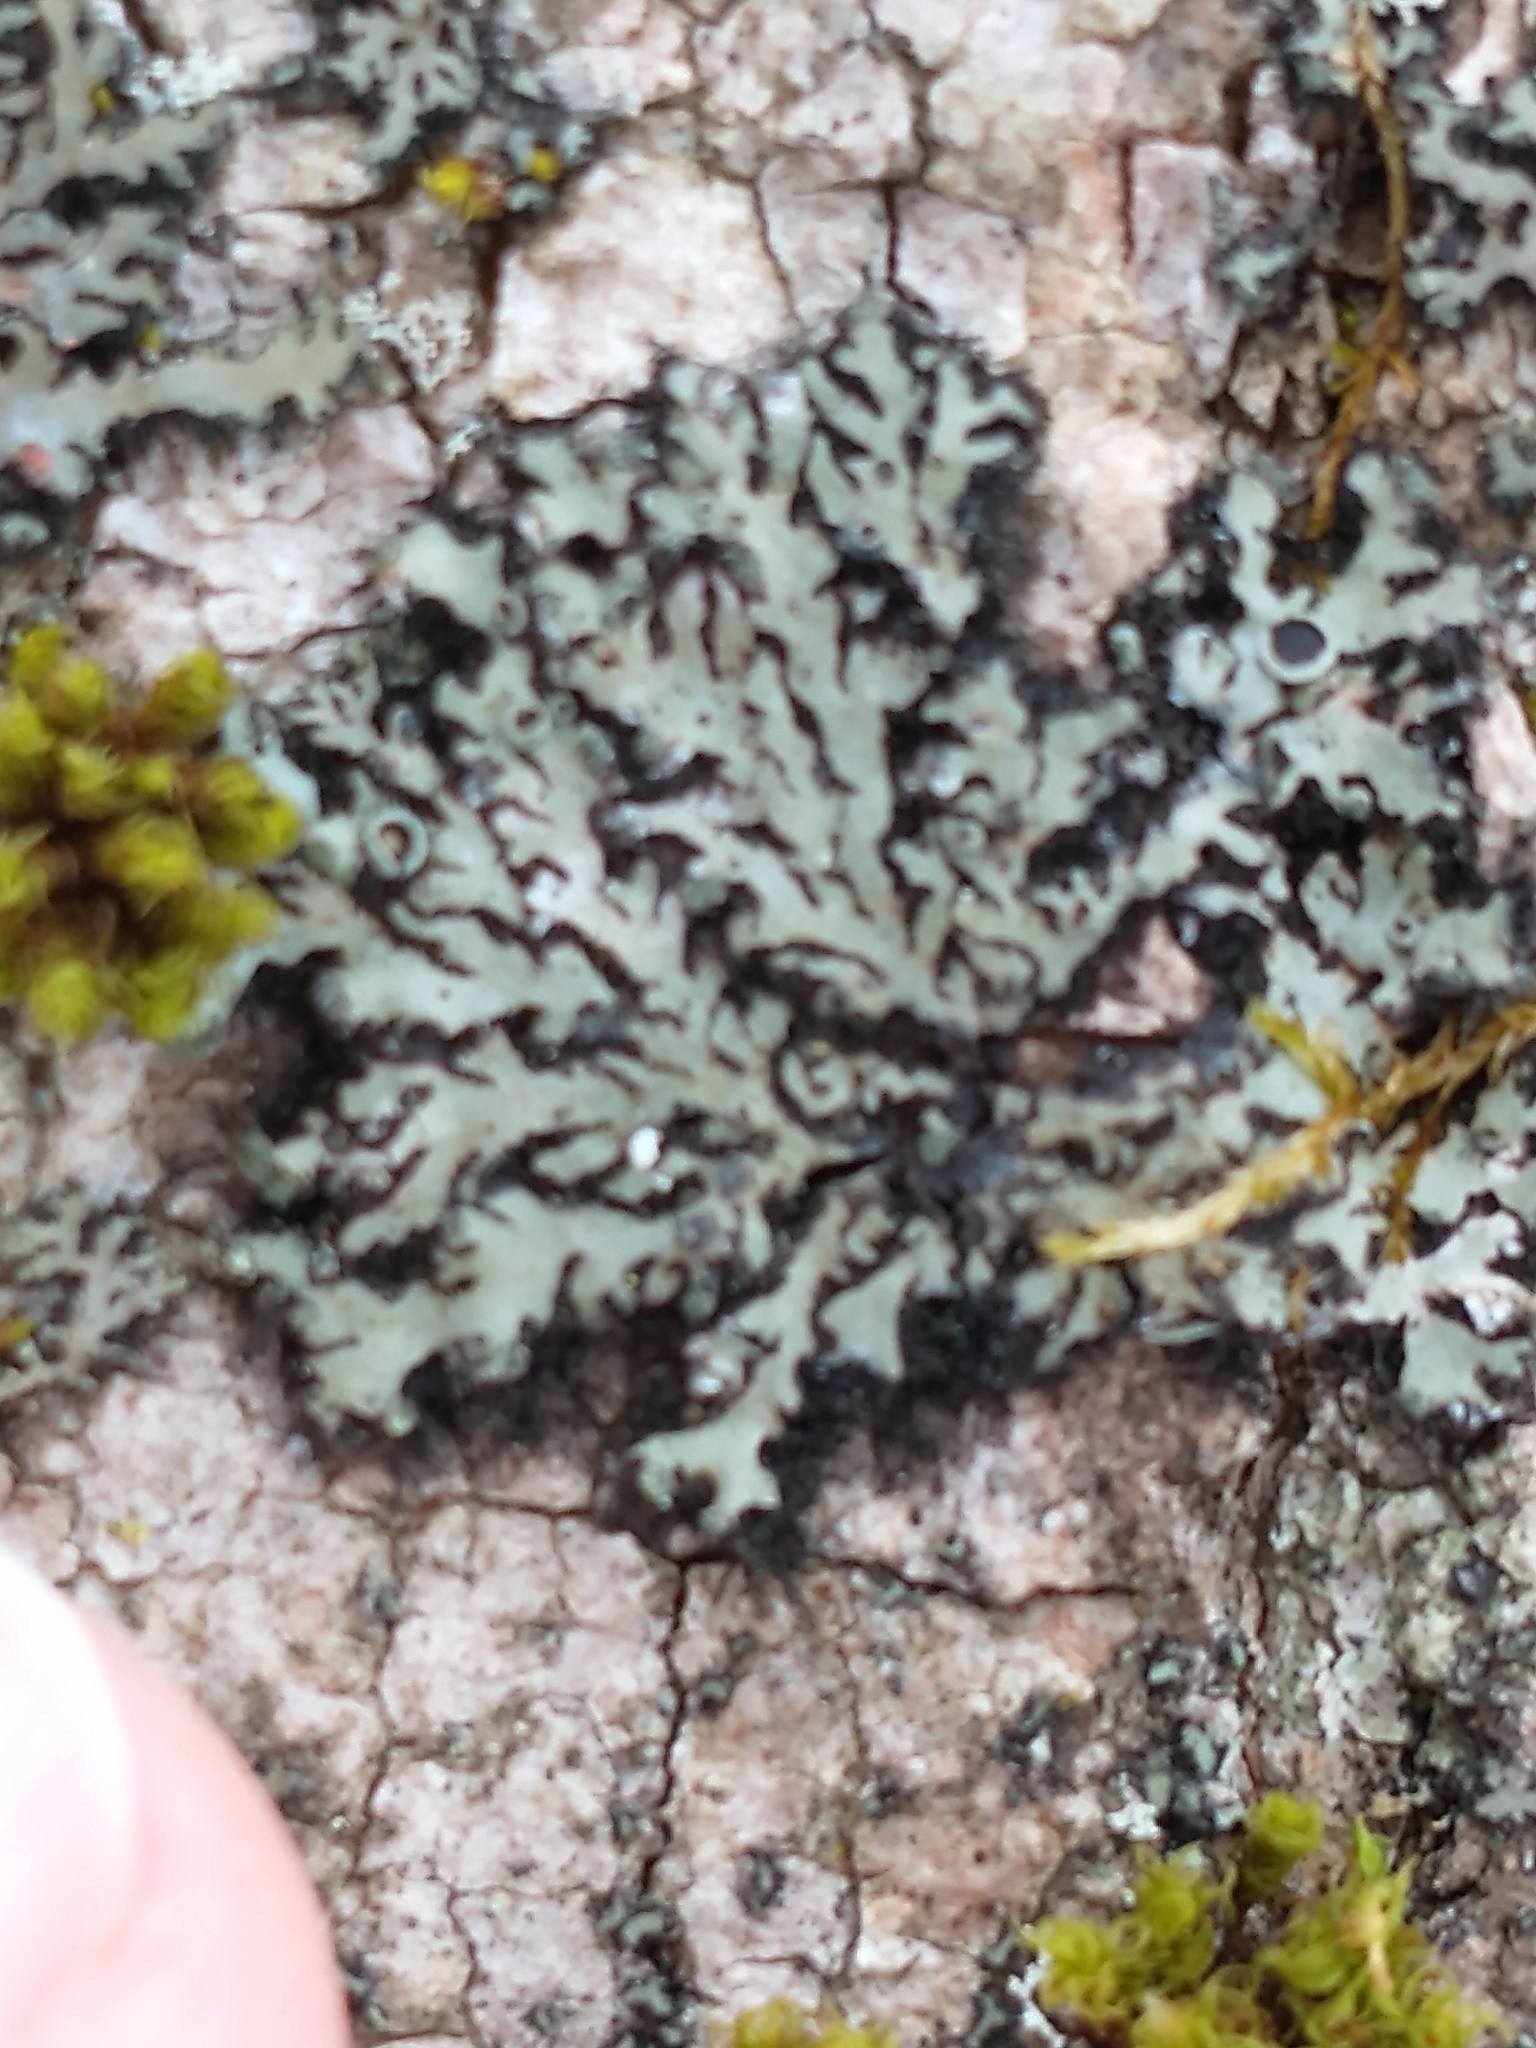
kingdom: Fungi
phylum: Ascomycota
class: Lecanoromycetes
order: Caliciales
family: Physciaceae
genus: Phaeophyscia
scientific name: Phaeophyscia rubropulchra
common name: Orange-cored shadow lichen
